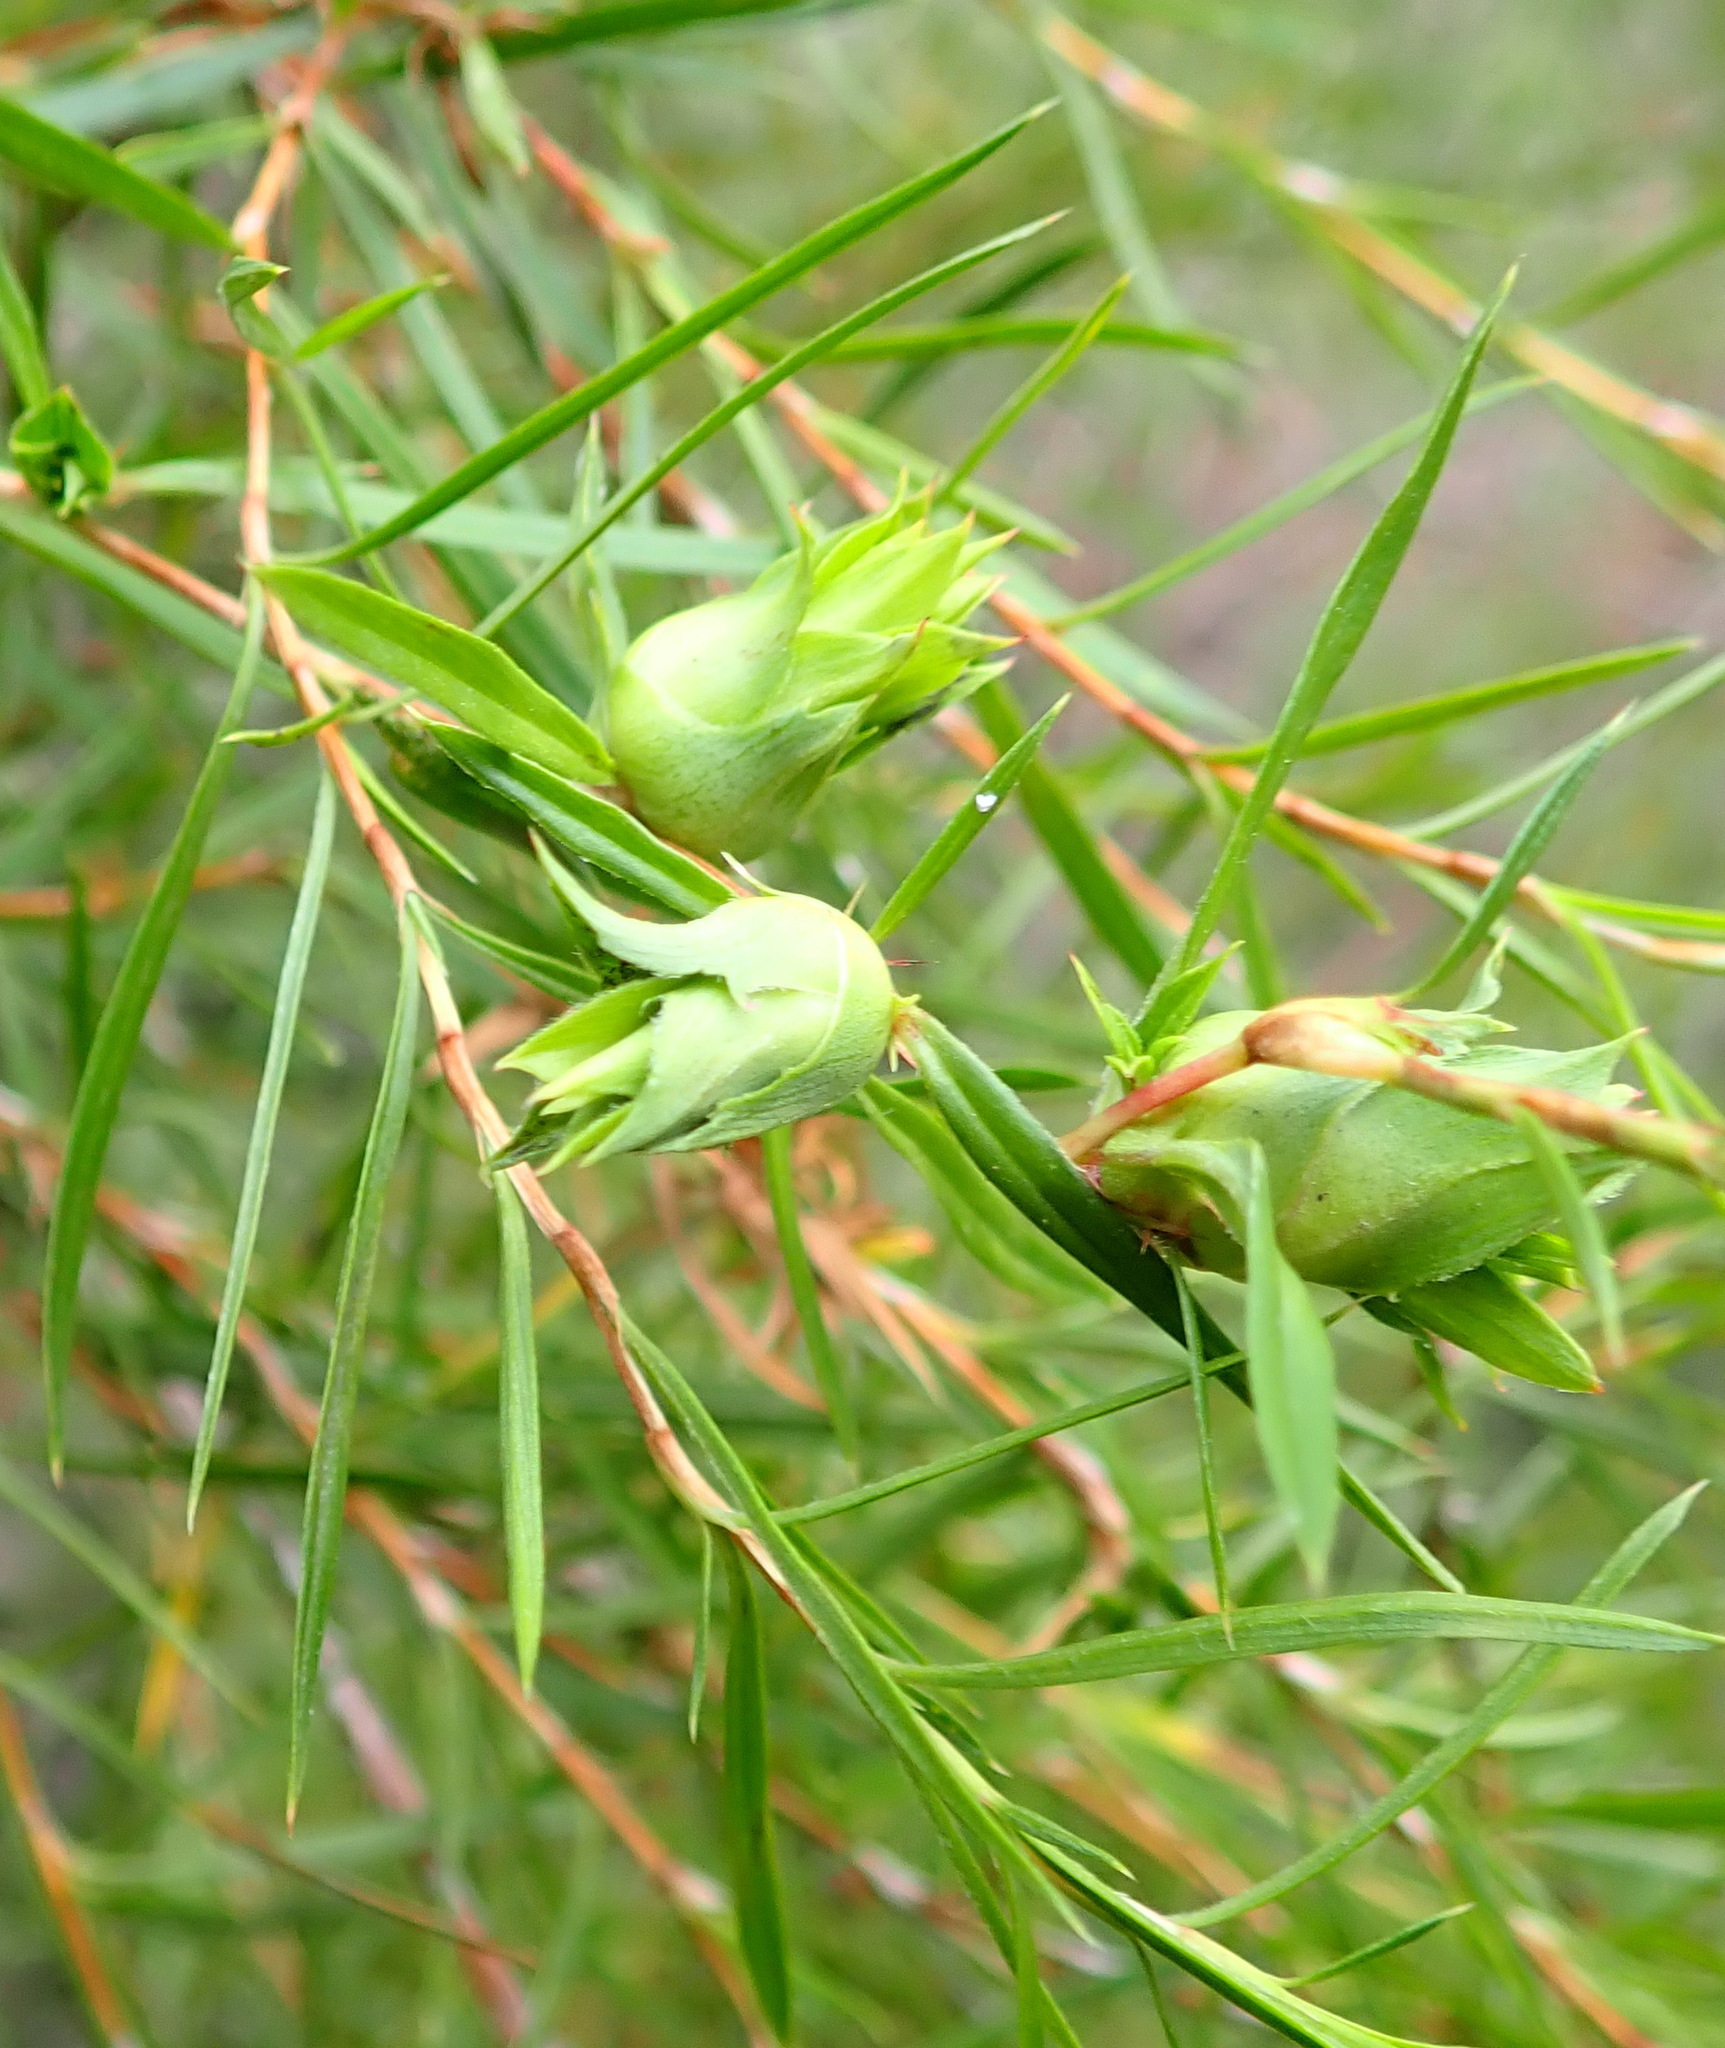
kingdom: Plantae
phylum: Tracheophyta
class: Magnoliopsida
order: Rosales
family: Rosaceae
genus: Cliffortia
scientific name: Cliffortia strobilifera
